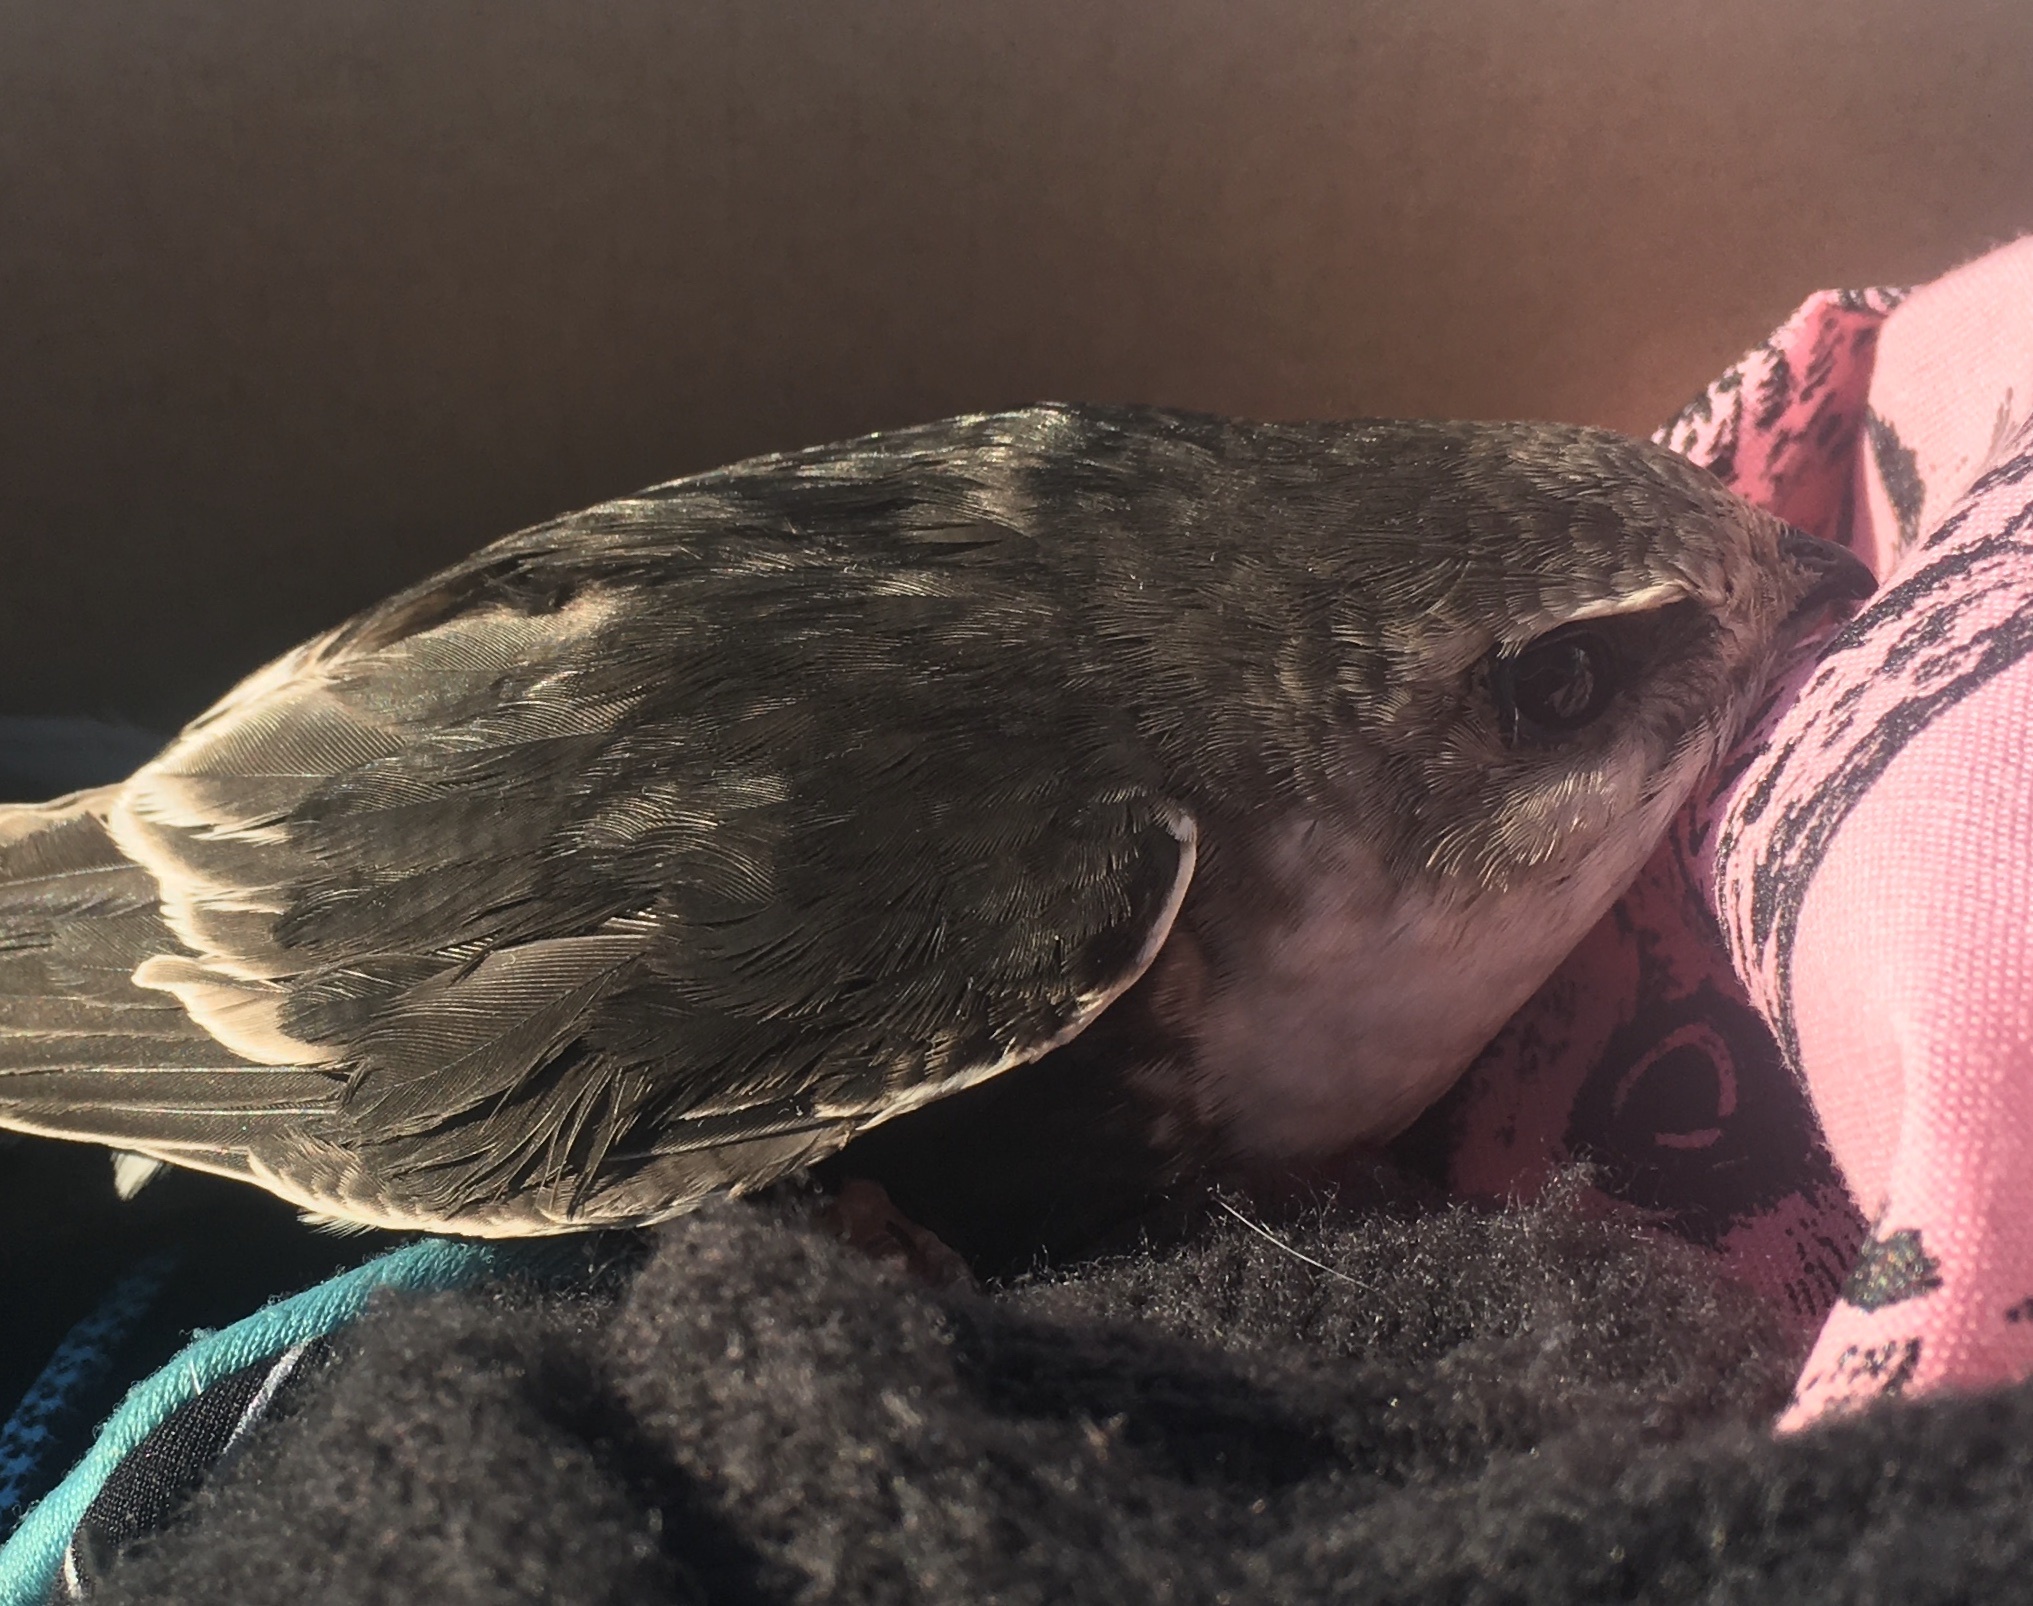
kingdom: Animalia
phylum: Chordata
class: Aves
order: Apodiformes
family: Apodidae
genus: Aeronautes
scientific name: Aeronautes saxatalis
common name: White-throated swift
